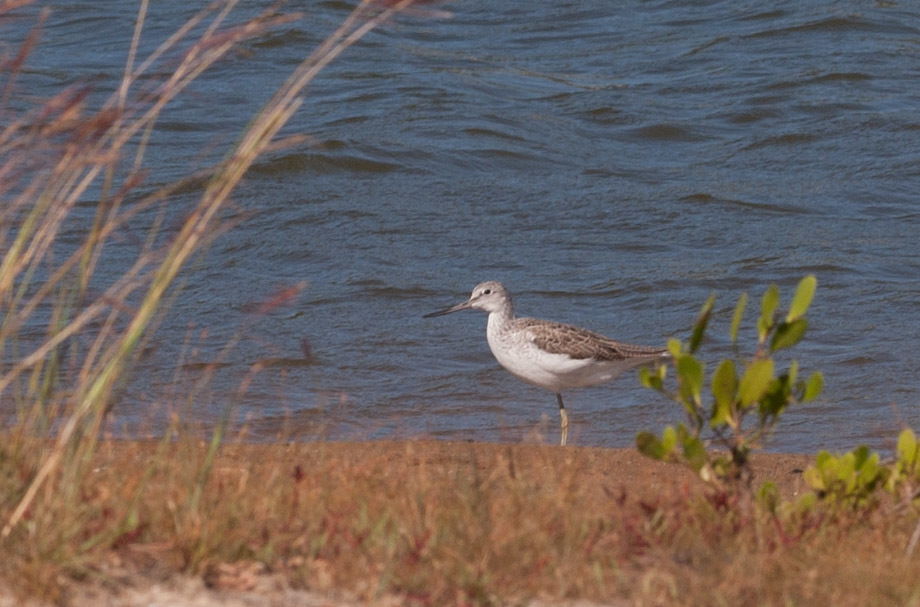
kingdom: Animalia
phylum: Chordata
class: Aves
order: Charadriiformes
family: Scolopacidae
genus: Tringa
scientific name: Tringa nebularia
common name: Common greenshank
